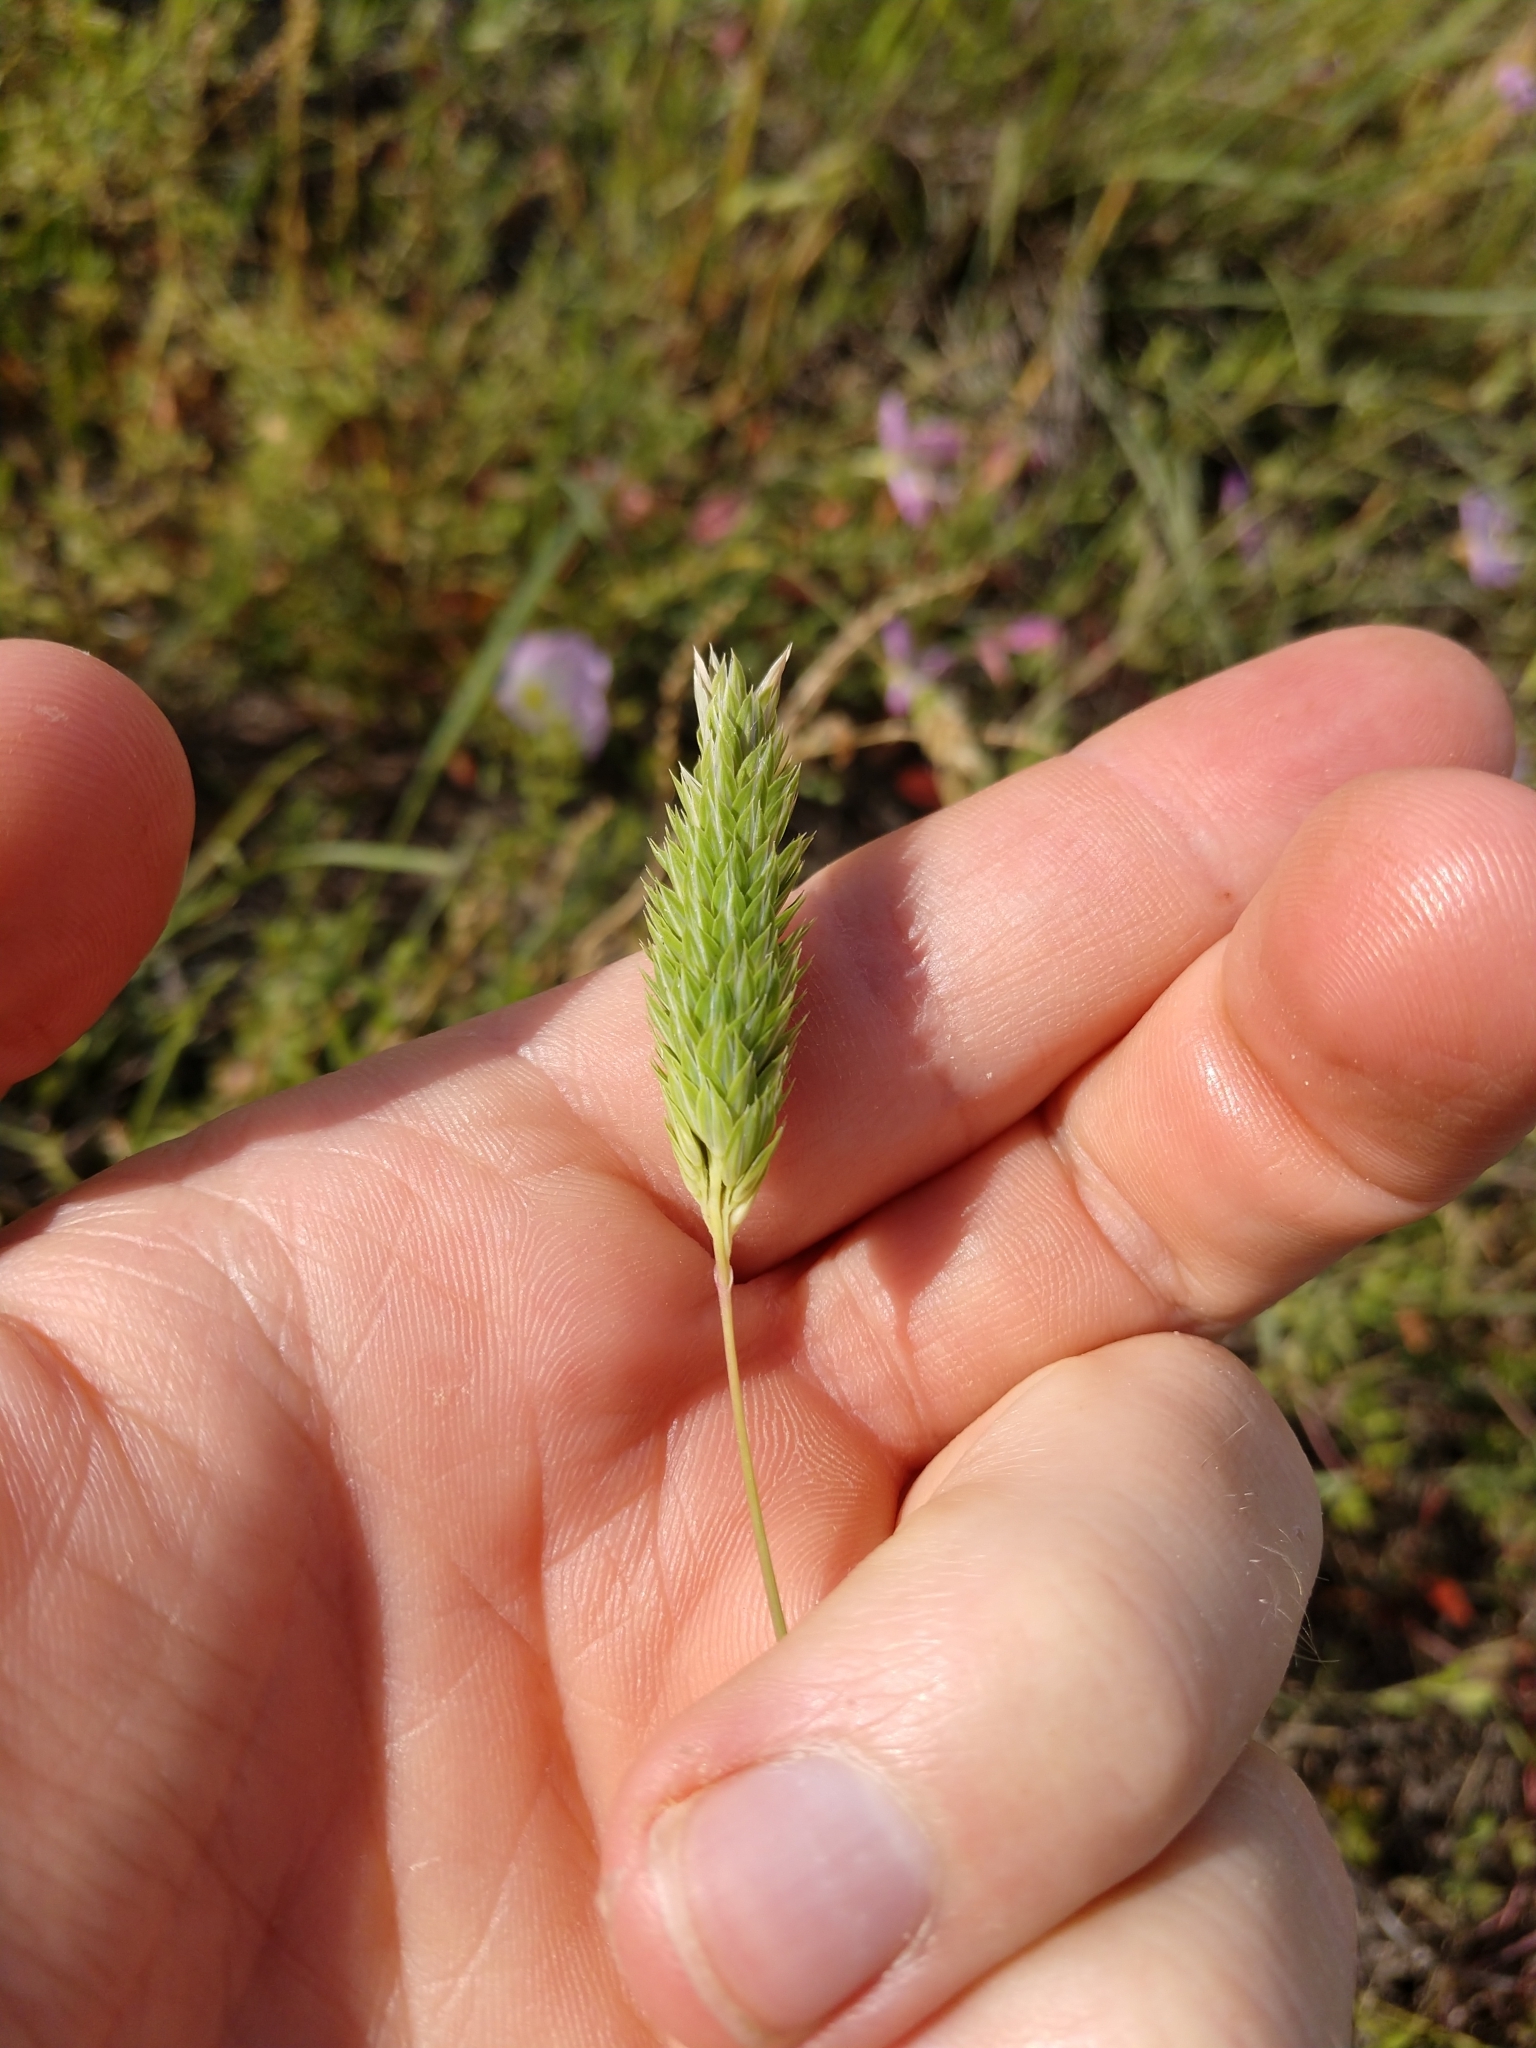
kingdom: Plantae
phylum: Tracheophyta
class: Liliopsida
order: Poales
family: Poaceae
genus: Phalaris
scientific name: Phalaris caroliniana
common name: May grass
